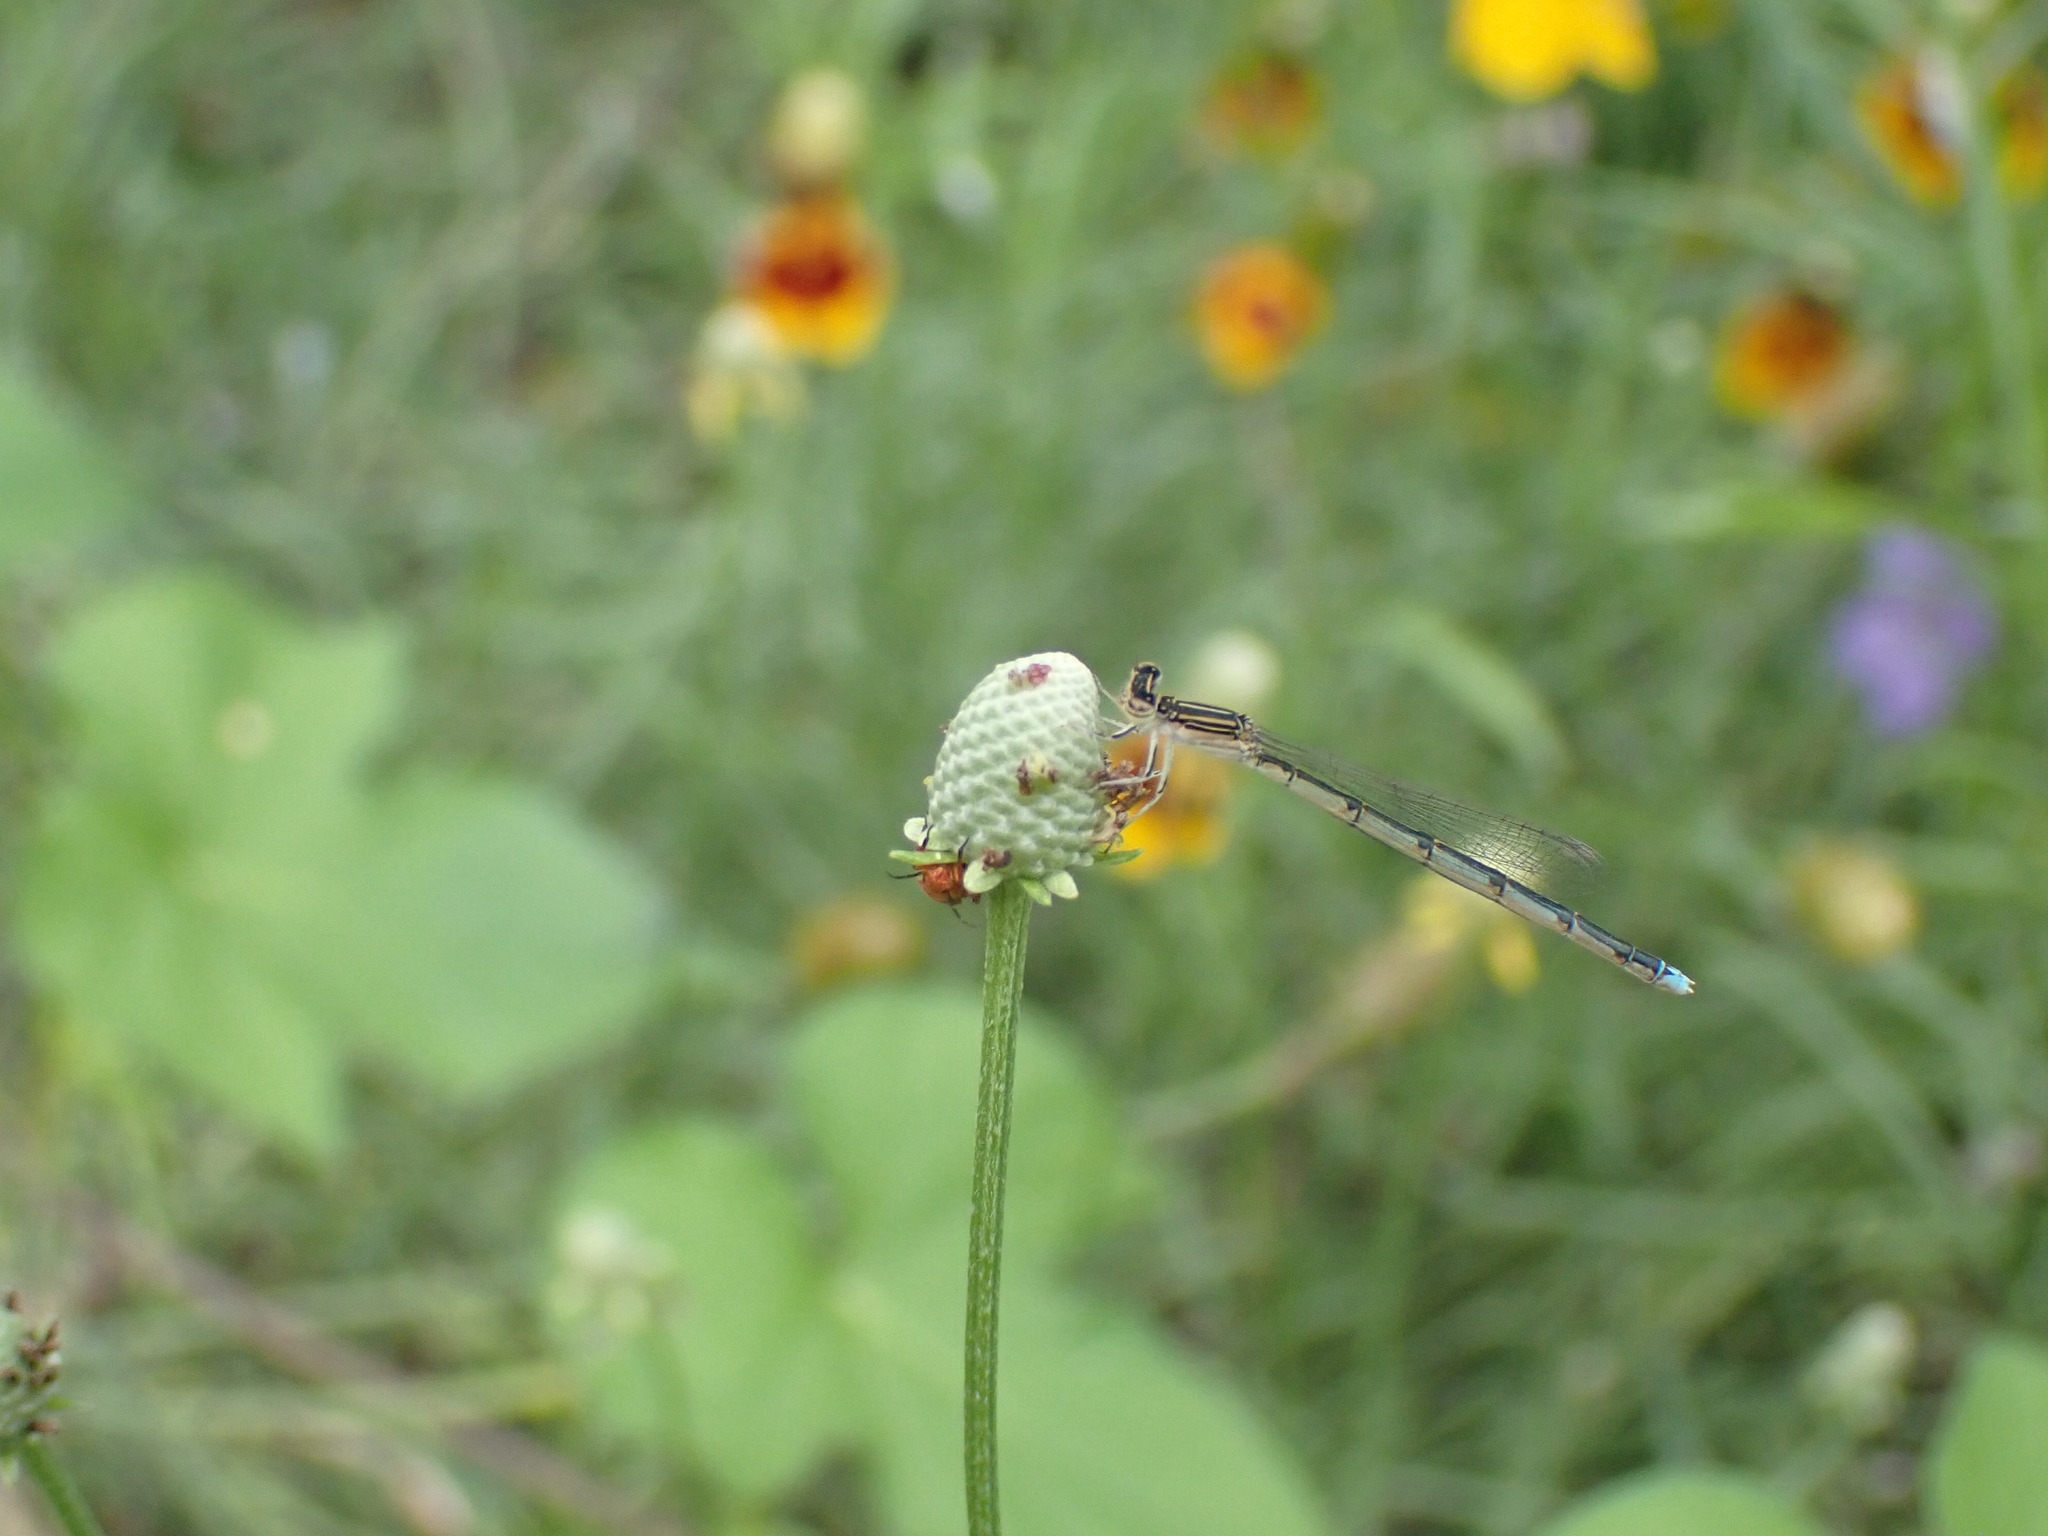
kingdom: Animalia
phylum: Arthropoda
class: Insecta
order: Odonata
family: Coenagrionidae
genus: Enallagma
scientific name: Enallagma basidens
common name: Double-striped bluet
